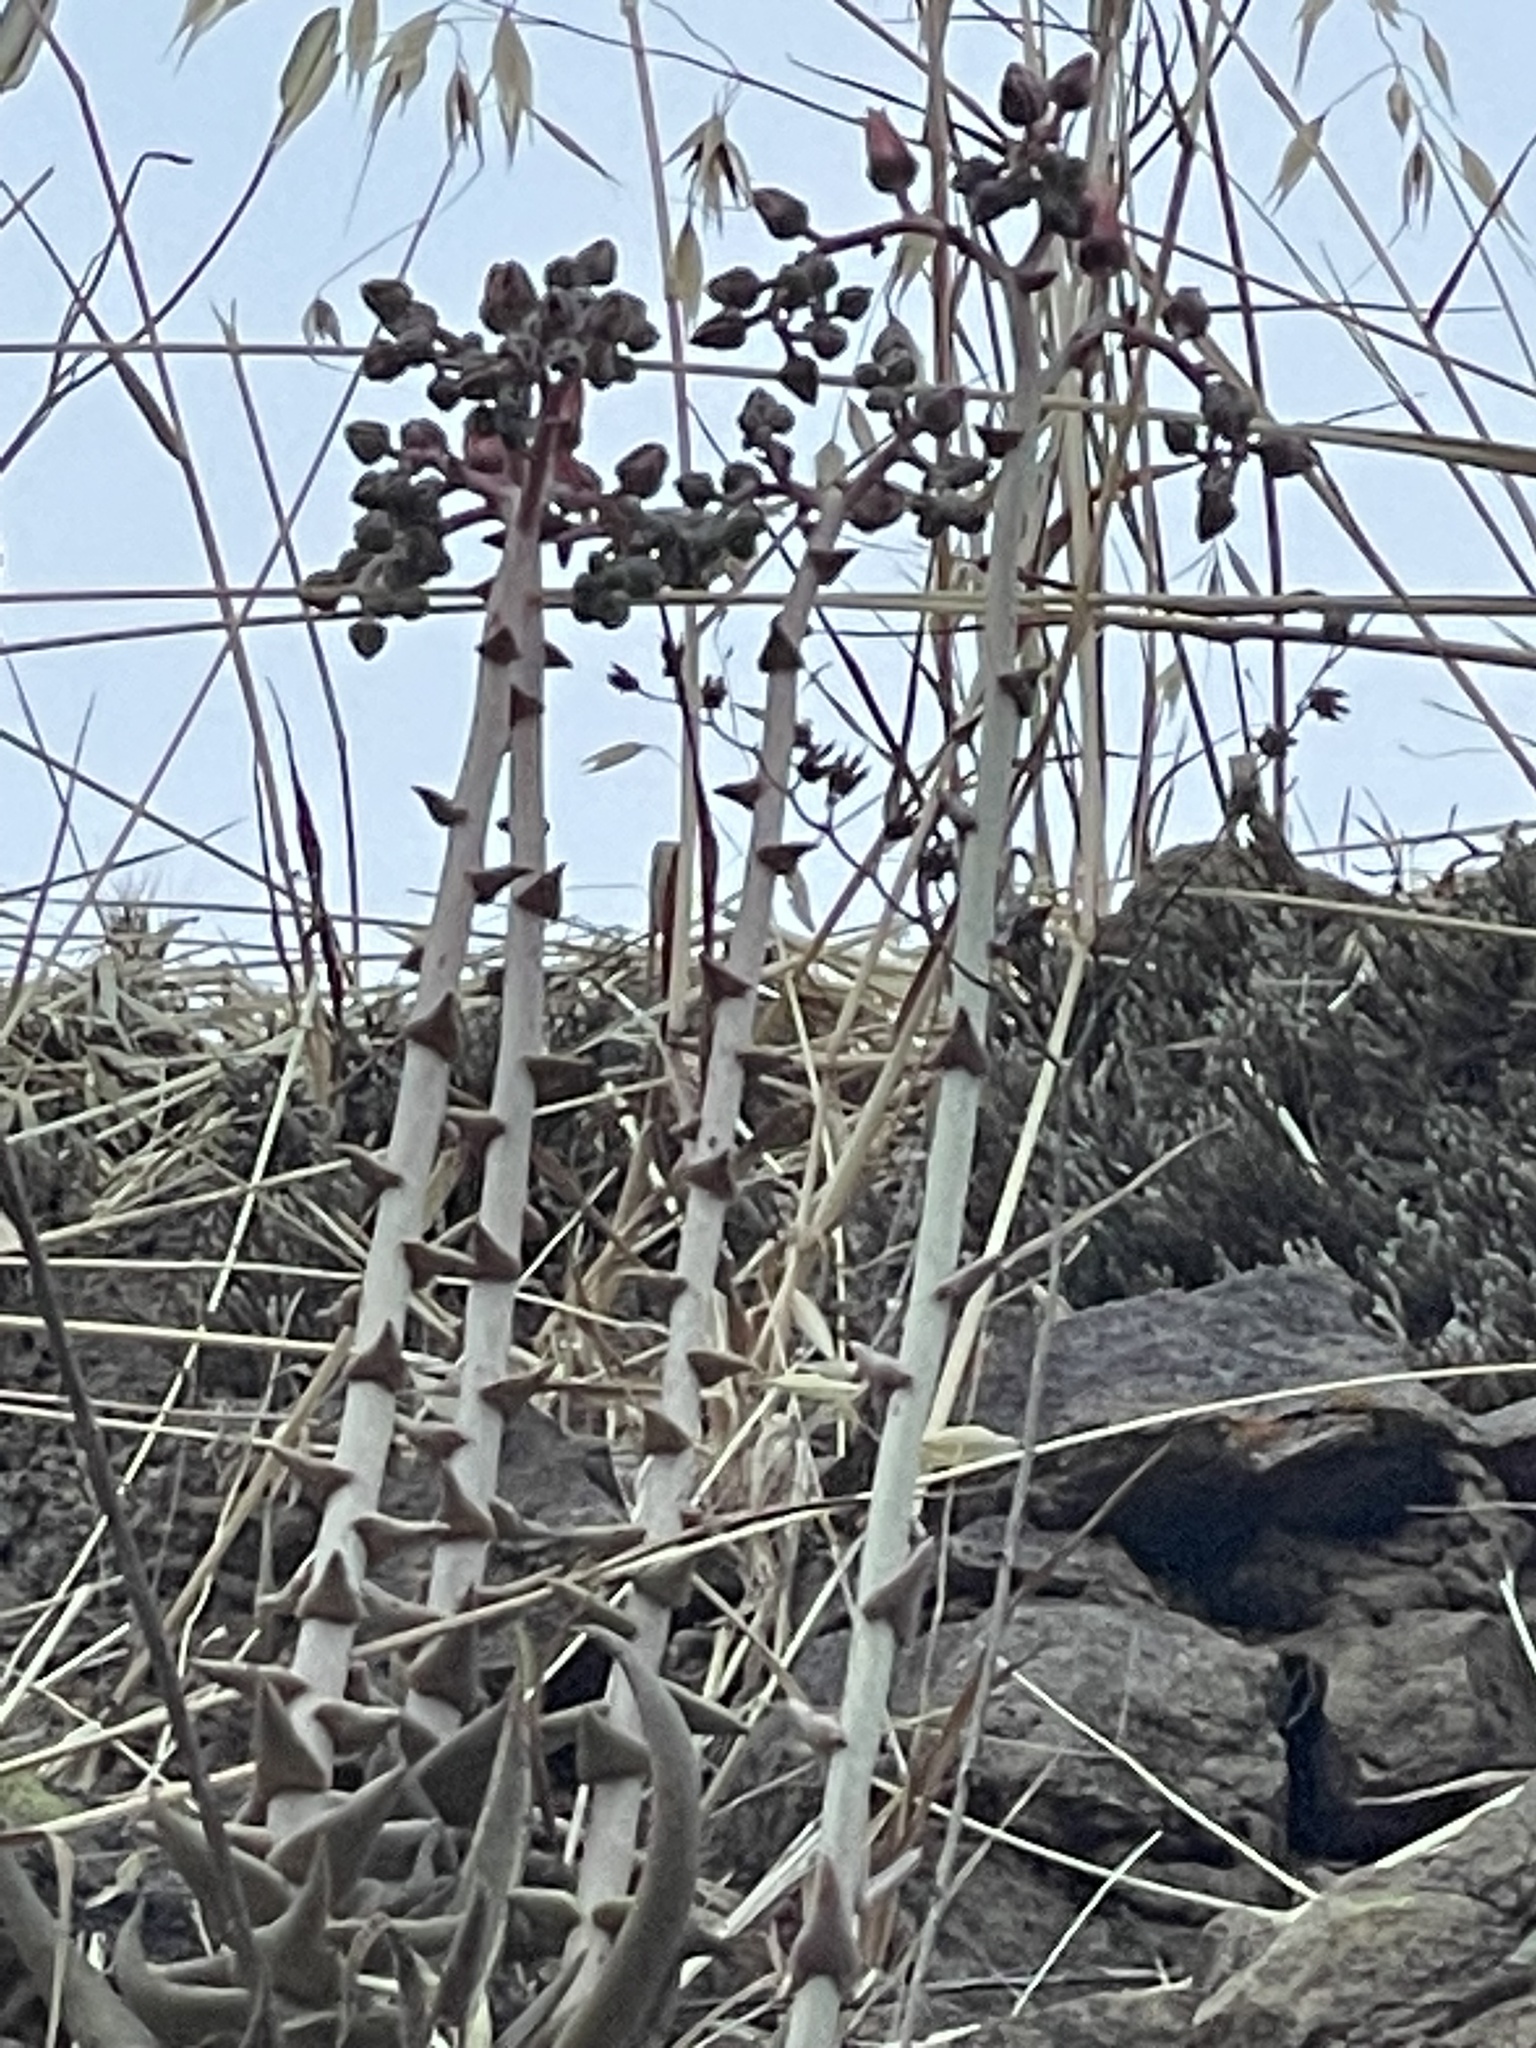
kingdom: Plantae
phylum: Tracheophyta
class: Magnoliopsida
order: Saxifragales
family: Crassulaceae
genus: Dudleya
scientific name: Dudleya lanceolata
